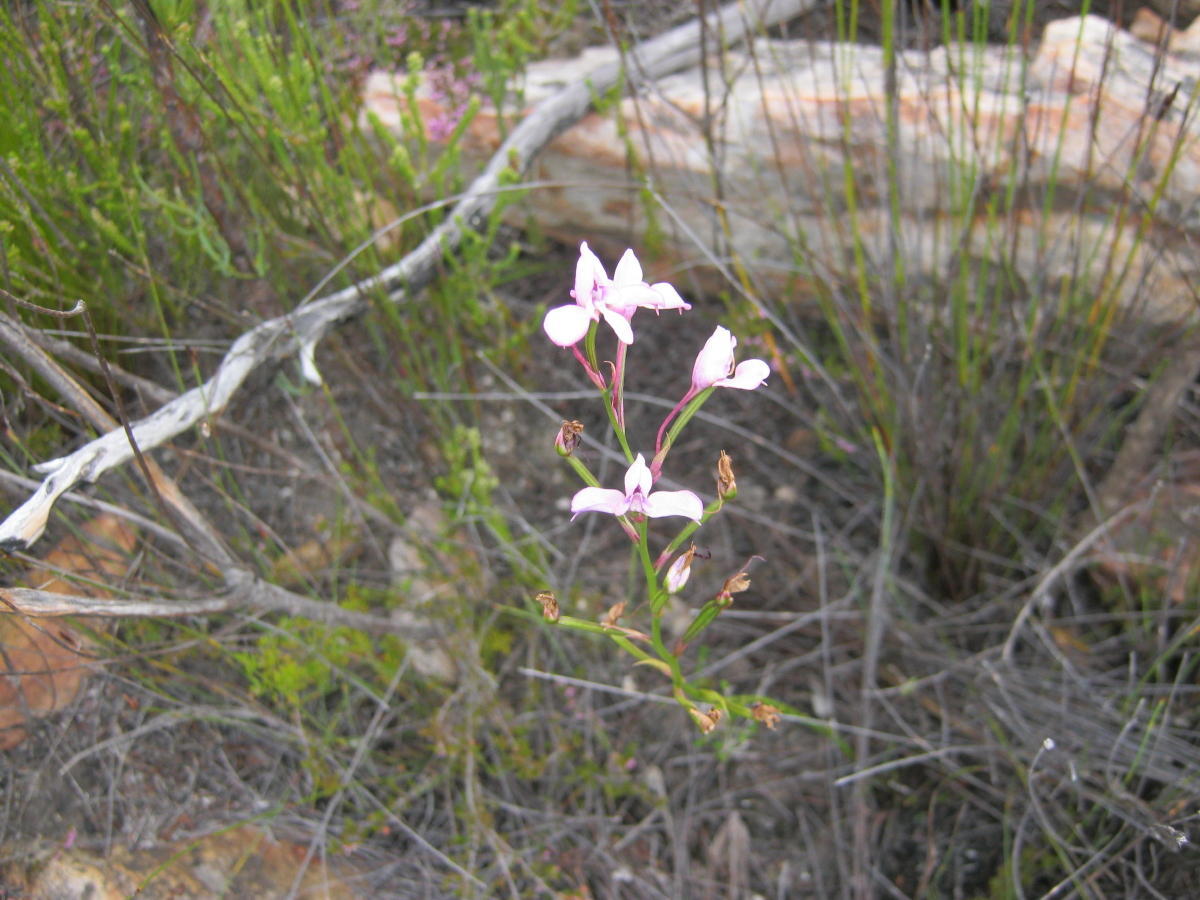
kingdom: Plantae
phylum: Tracheophyta
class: Liliopsida
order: Asparagales
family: Orchidaceae
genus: Disa
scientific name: Disa arida
